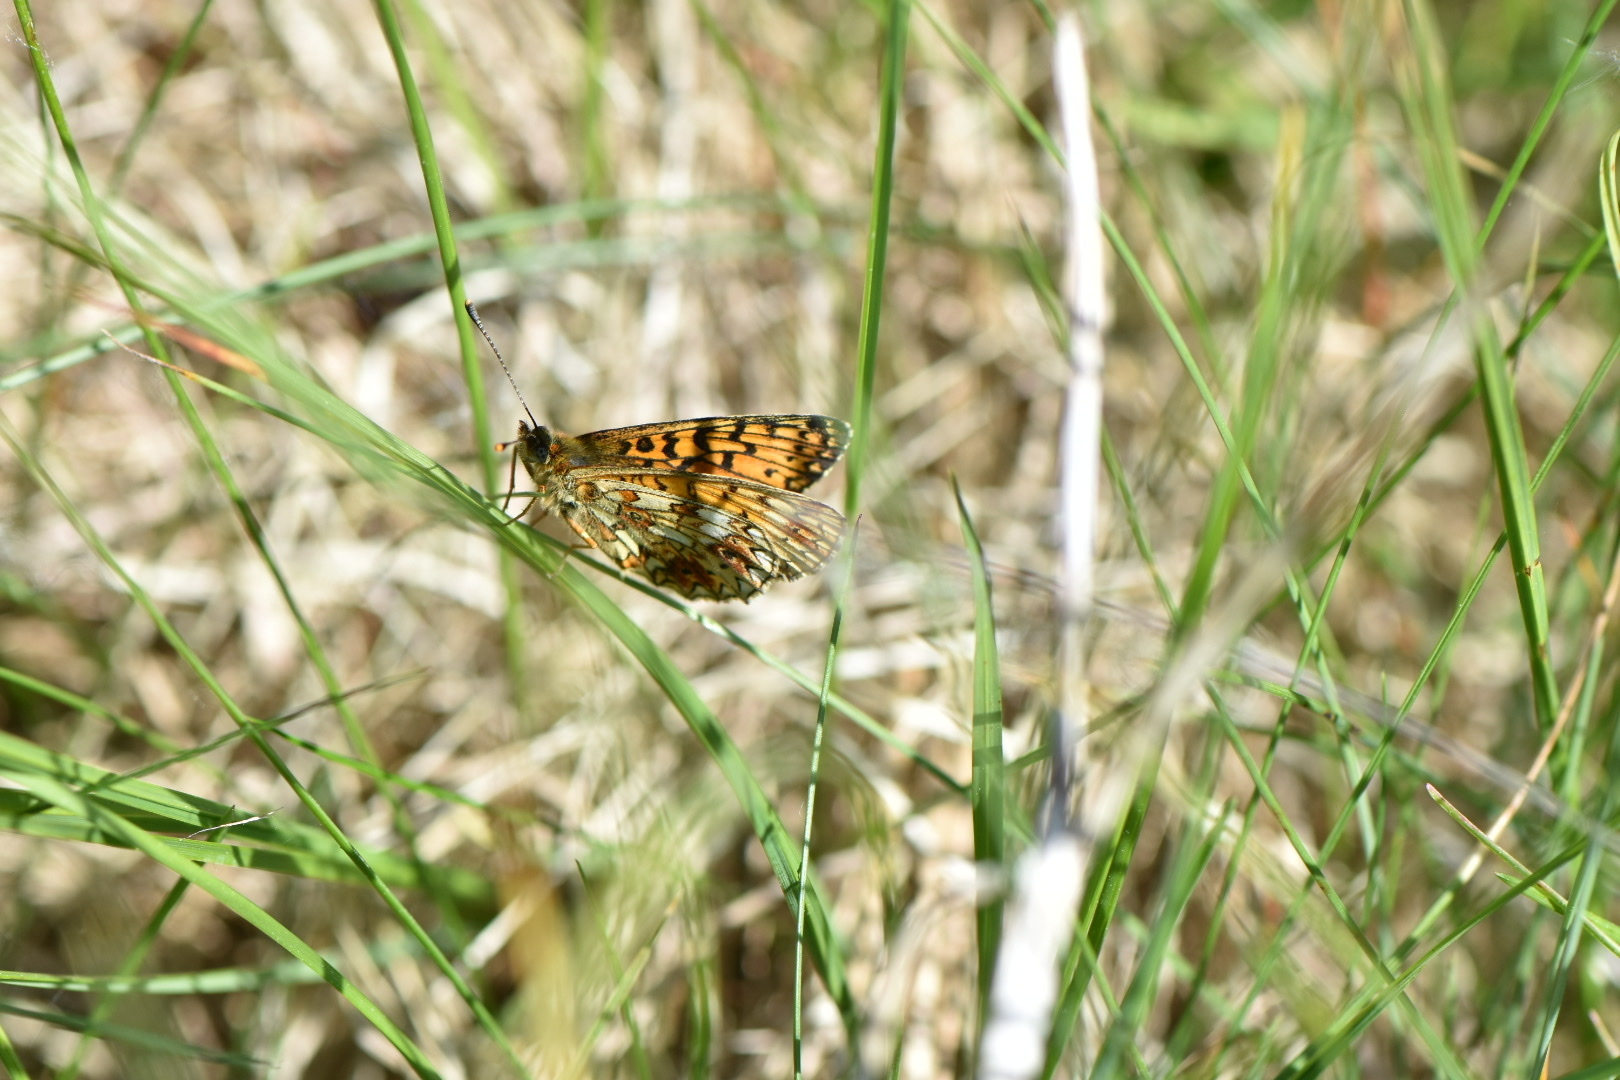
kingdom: Animalia
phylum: Arthropoda
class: Insecta
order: Lepidoptera
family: Nymphalidae
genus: Boloria
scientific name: Boloria selene
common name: Small pearl-bordered fritillary
